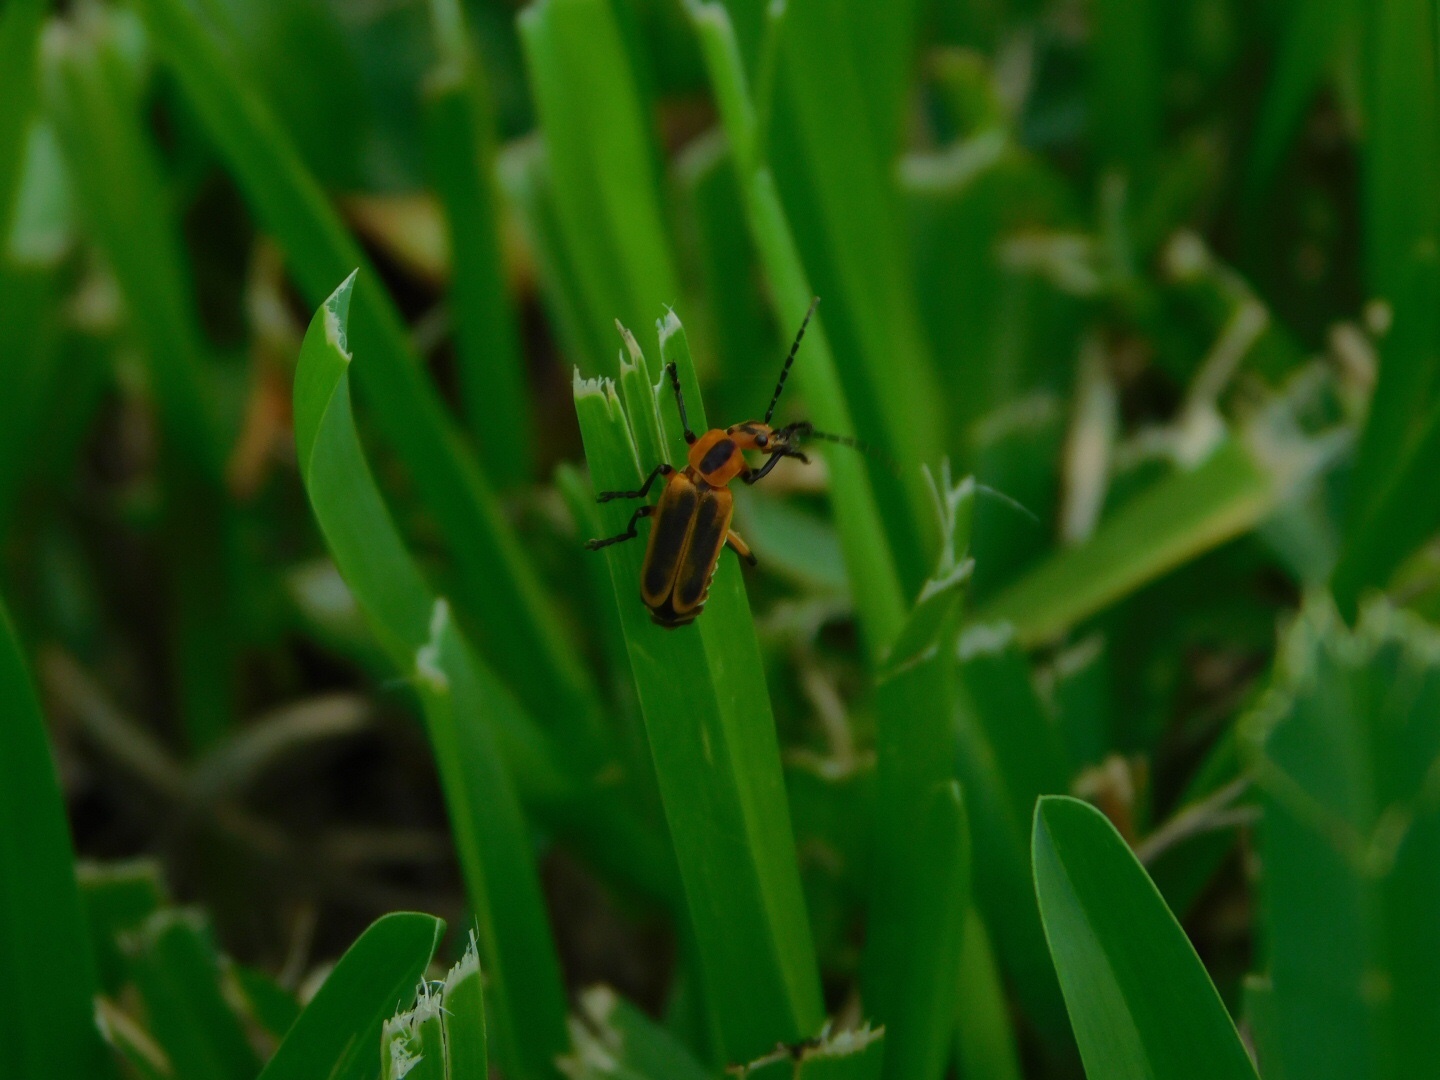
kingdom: Animalia
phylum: Arthropoda
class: Insecta
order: Coleoptera
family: Cantharidae
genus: Chauliognathus
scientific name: Chauliognathus marginatus
